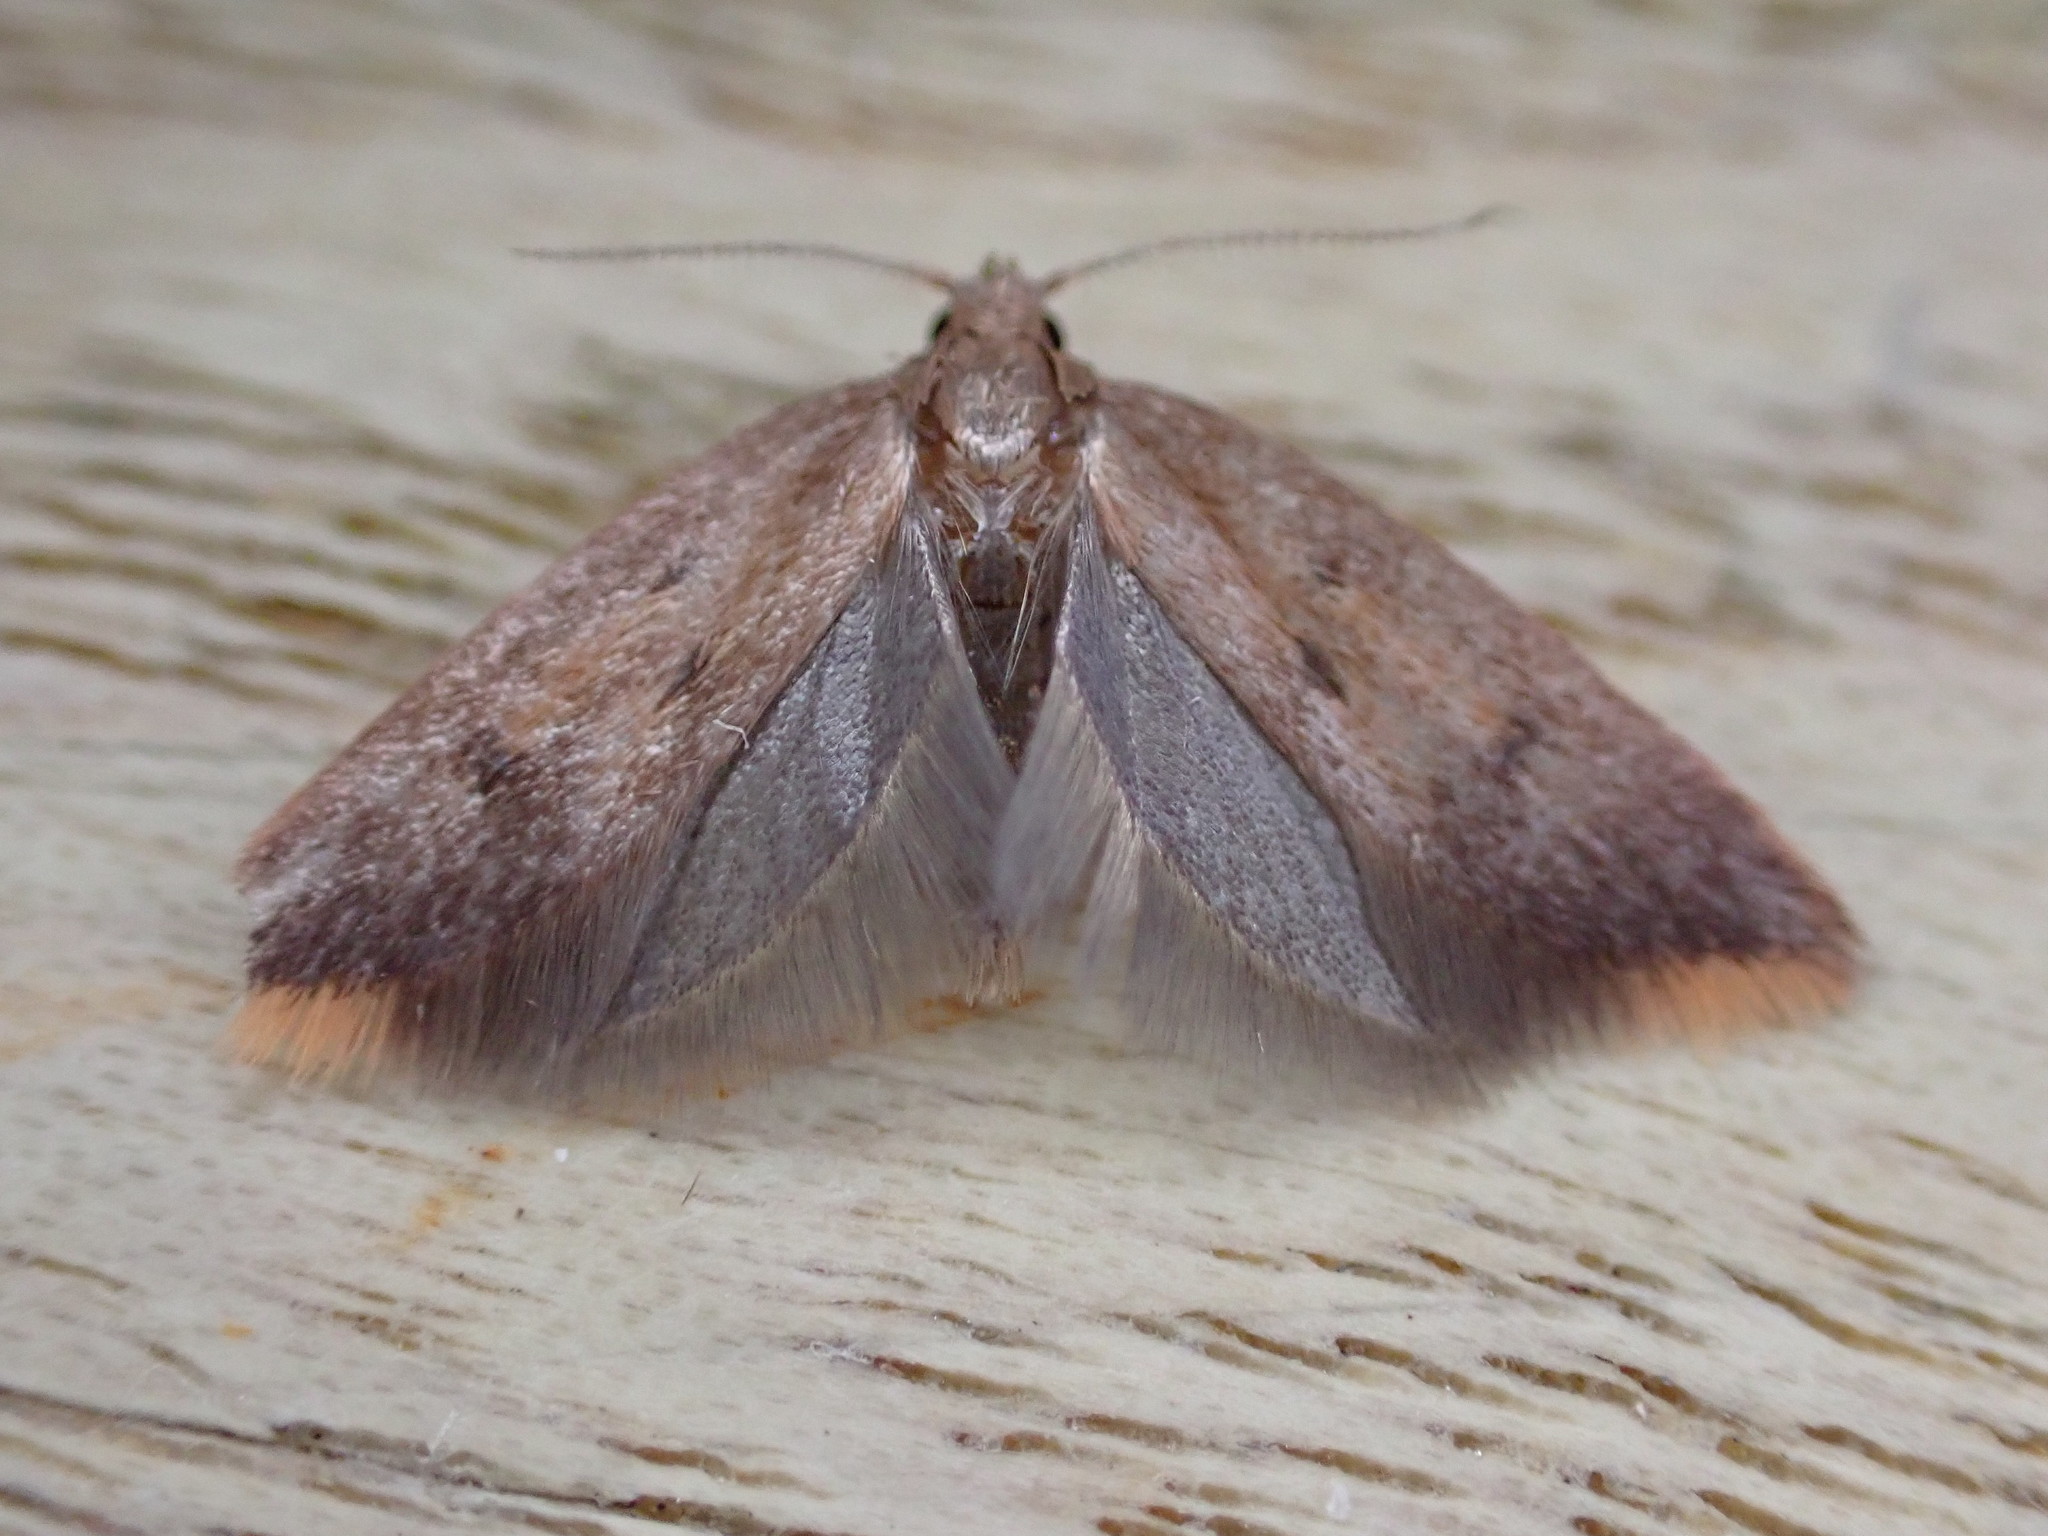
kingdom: Animalia
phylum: Arthropoda
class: Insecta
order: Lepidoptera
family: Oecophoridae
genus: Tachystola
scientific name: Tachystola acroxantha
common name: Ruddy streak
